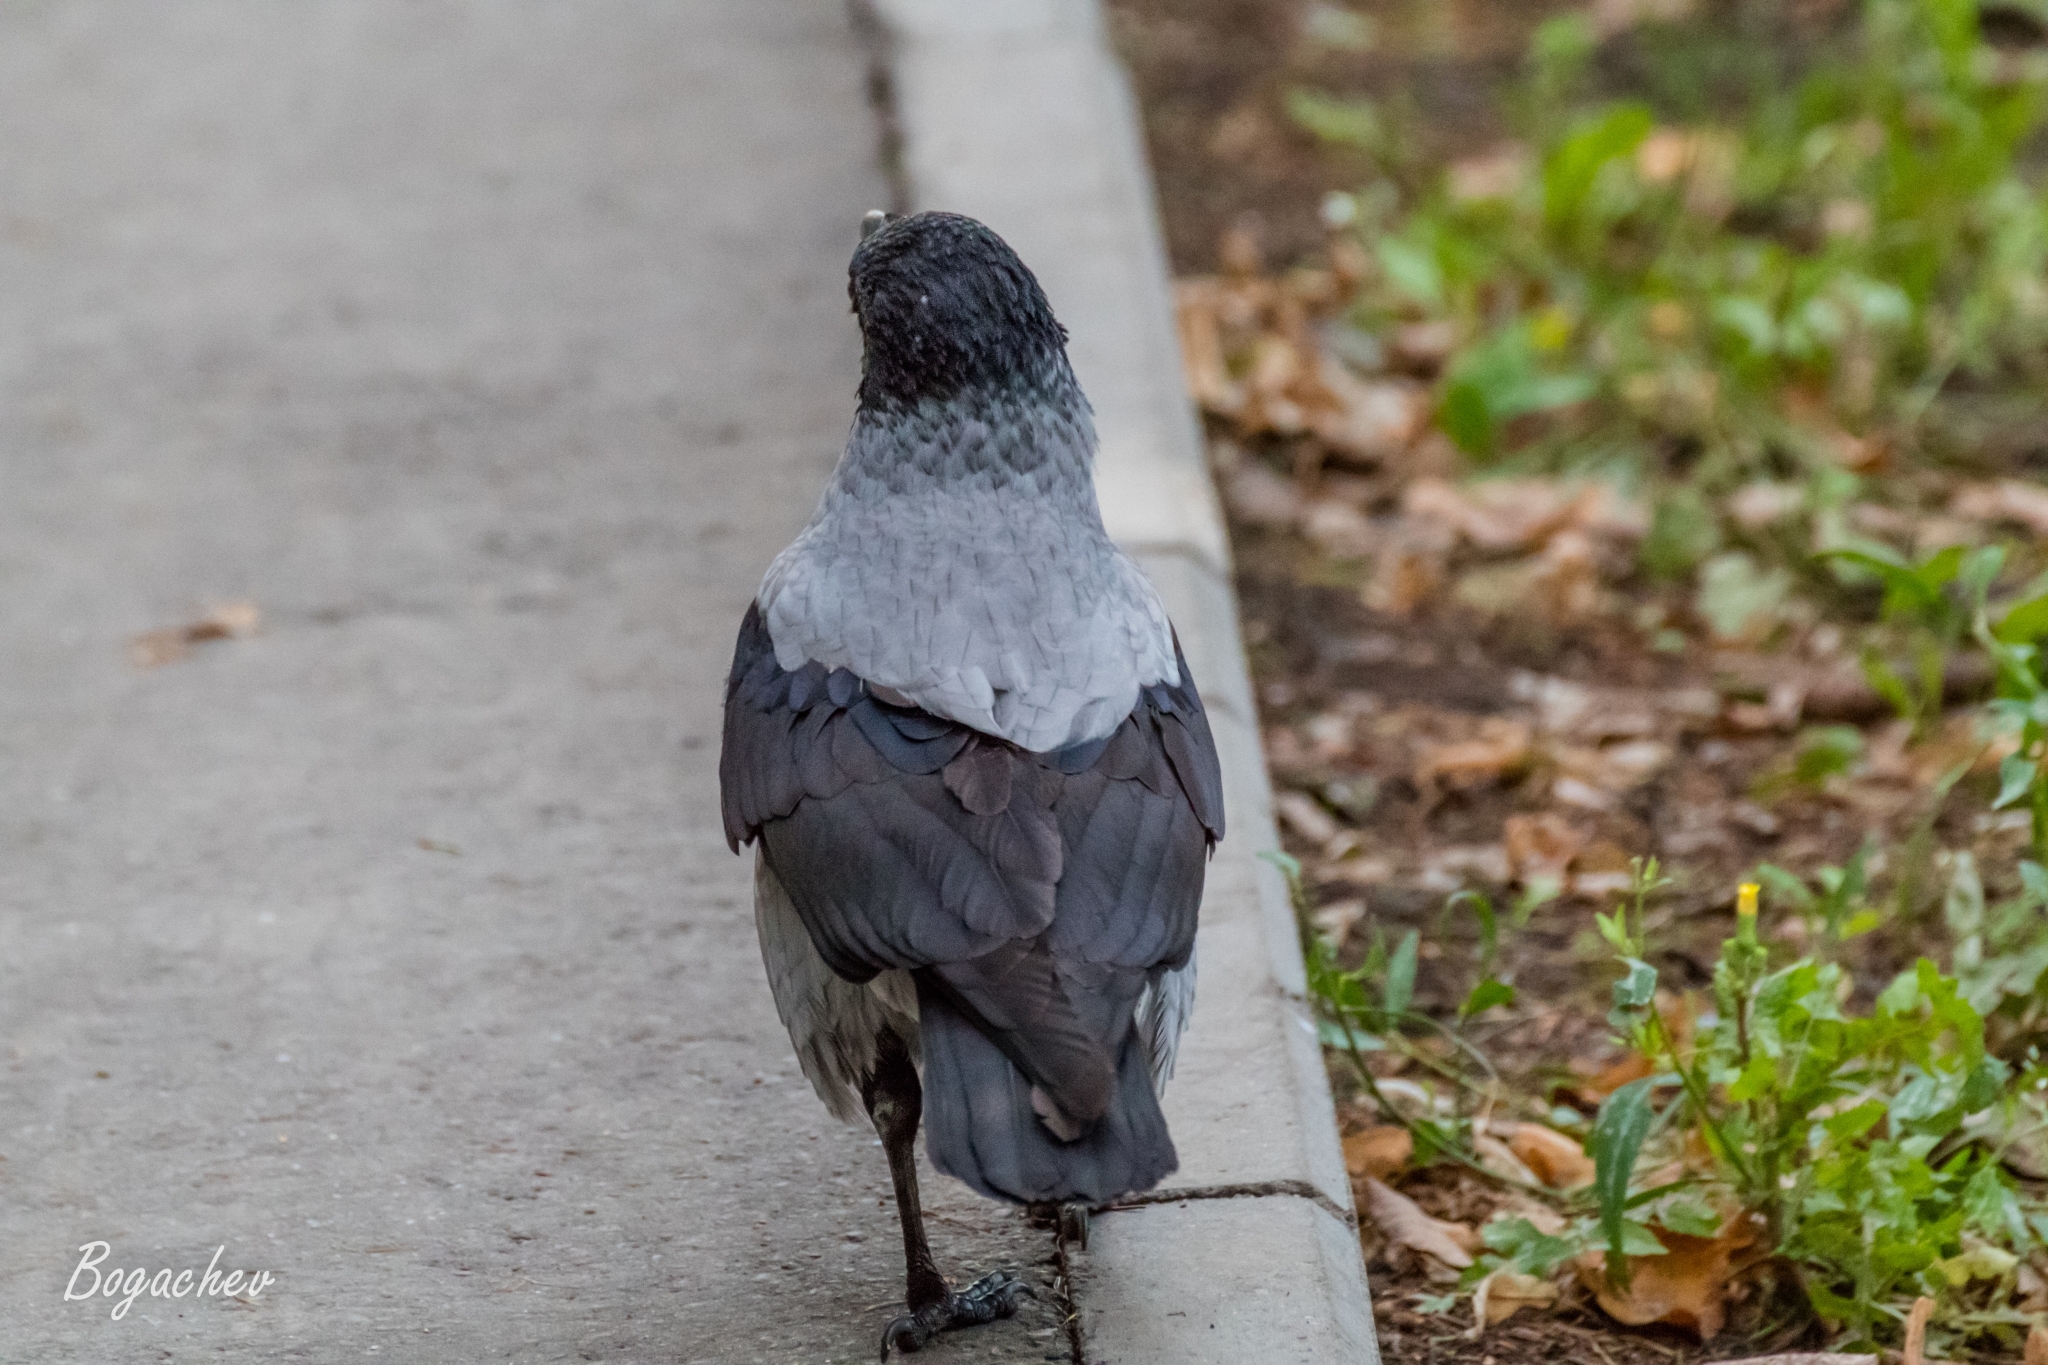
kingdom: Animalia
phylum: Chordata
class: Aves
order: Passeriformes
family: Corvidae
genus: Corvus
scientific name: Corvus cornix
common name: Hooded crow
